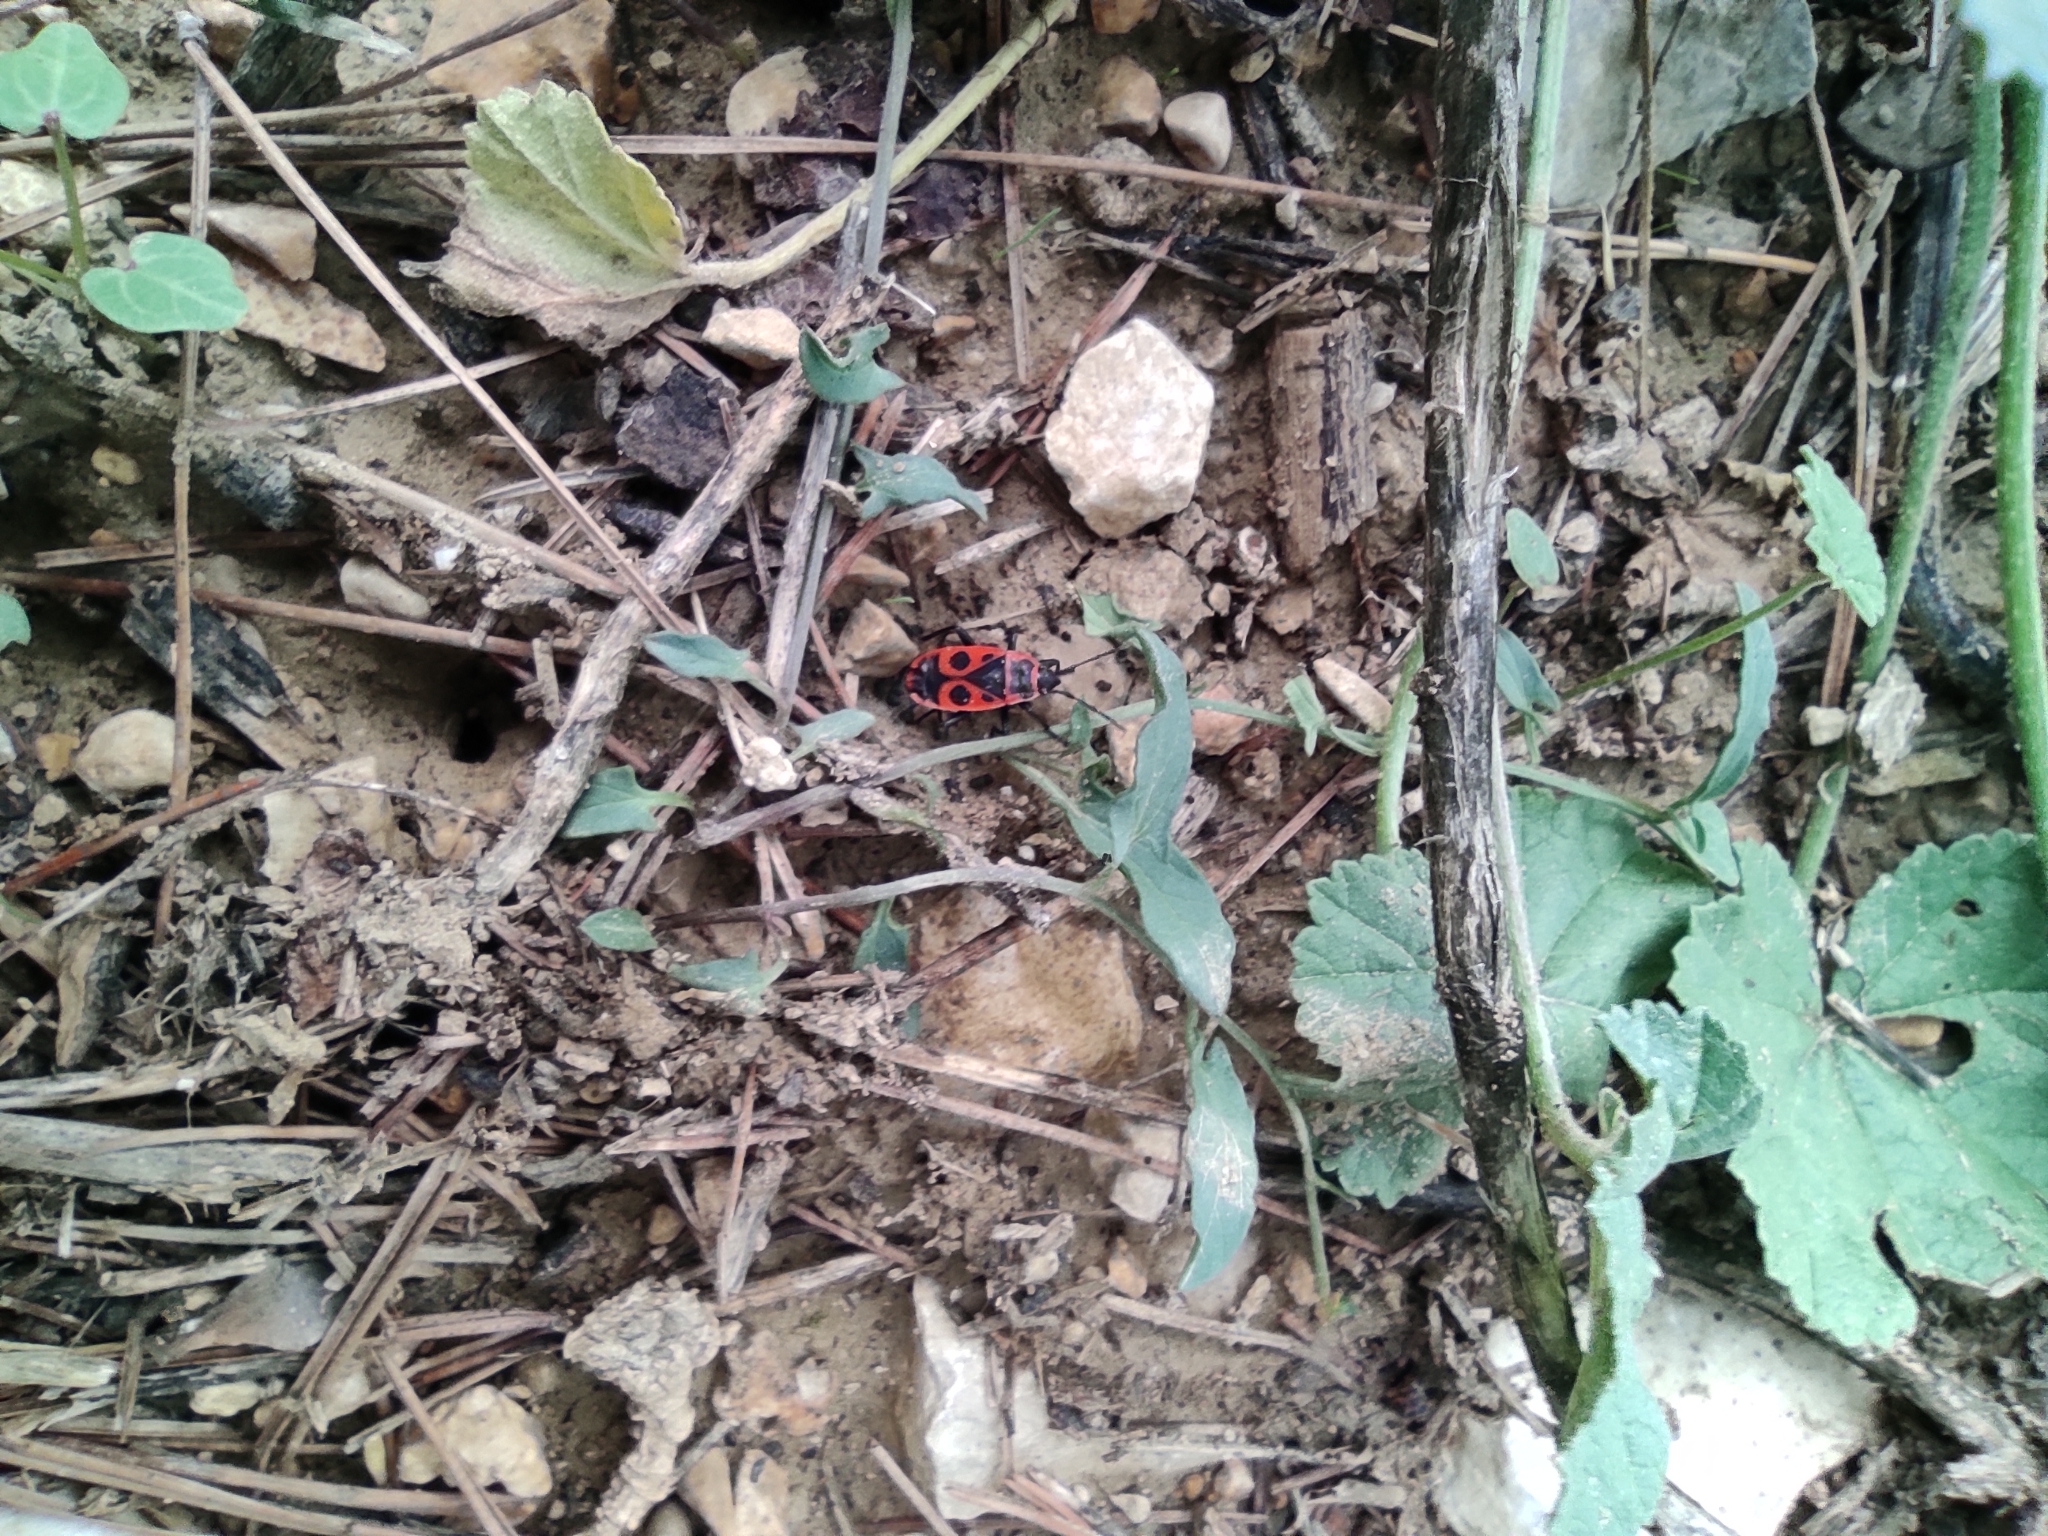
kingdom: Animalia
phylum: Arthropoda
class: Insecta
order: Hemiptera
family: Pyrrhocoridae
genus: Pyrrhocoris
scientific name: Pyrrhocoris apterus
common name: Firebug
